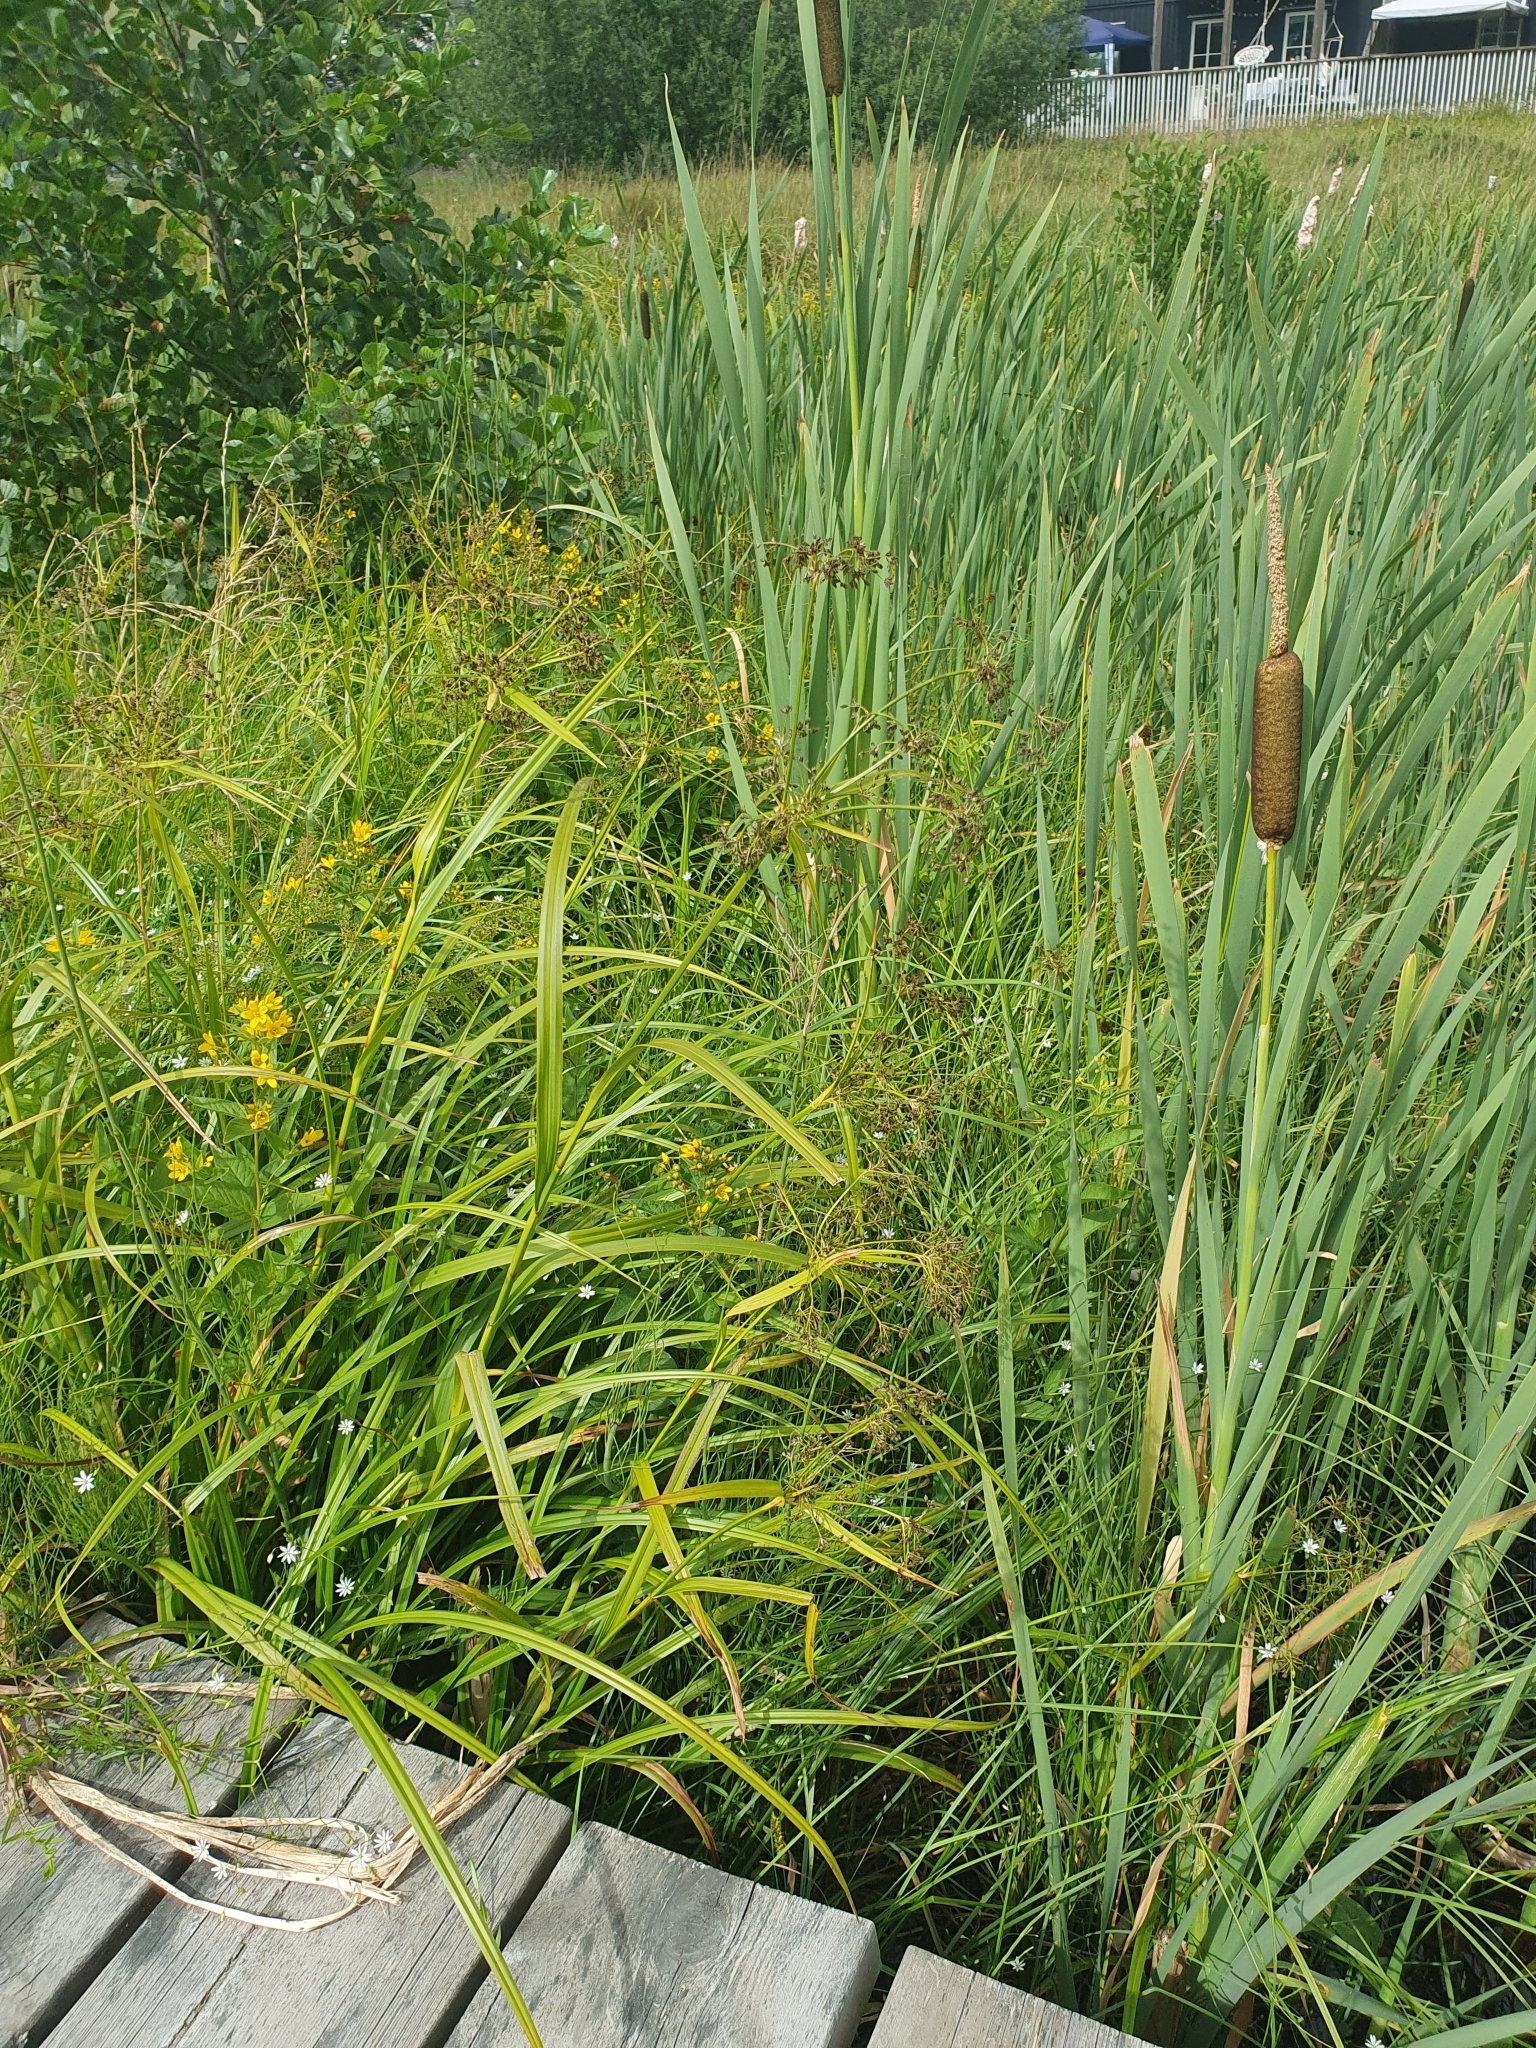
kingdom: Plantae
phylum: Tracheophyta
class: Liliopsida
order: Poales
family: Cyperaceae
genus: Scirpus
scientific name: Scirpus sylvaticus
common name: Wood club-rush
